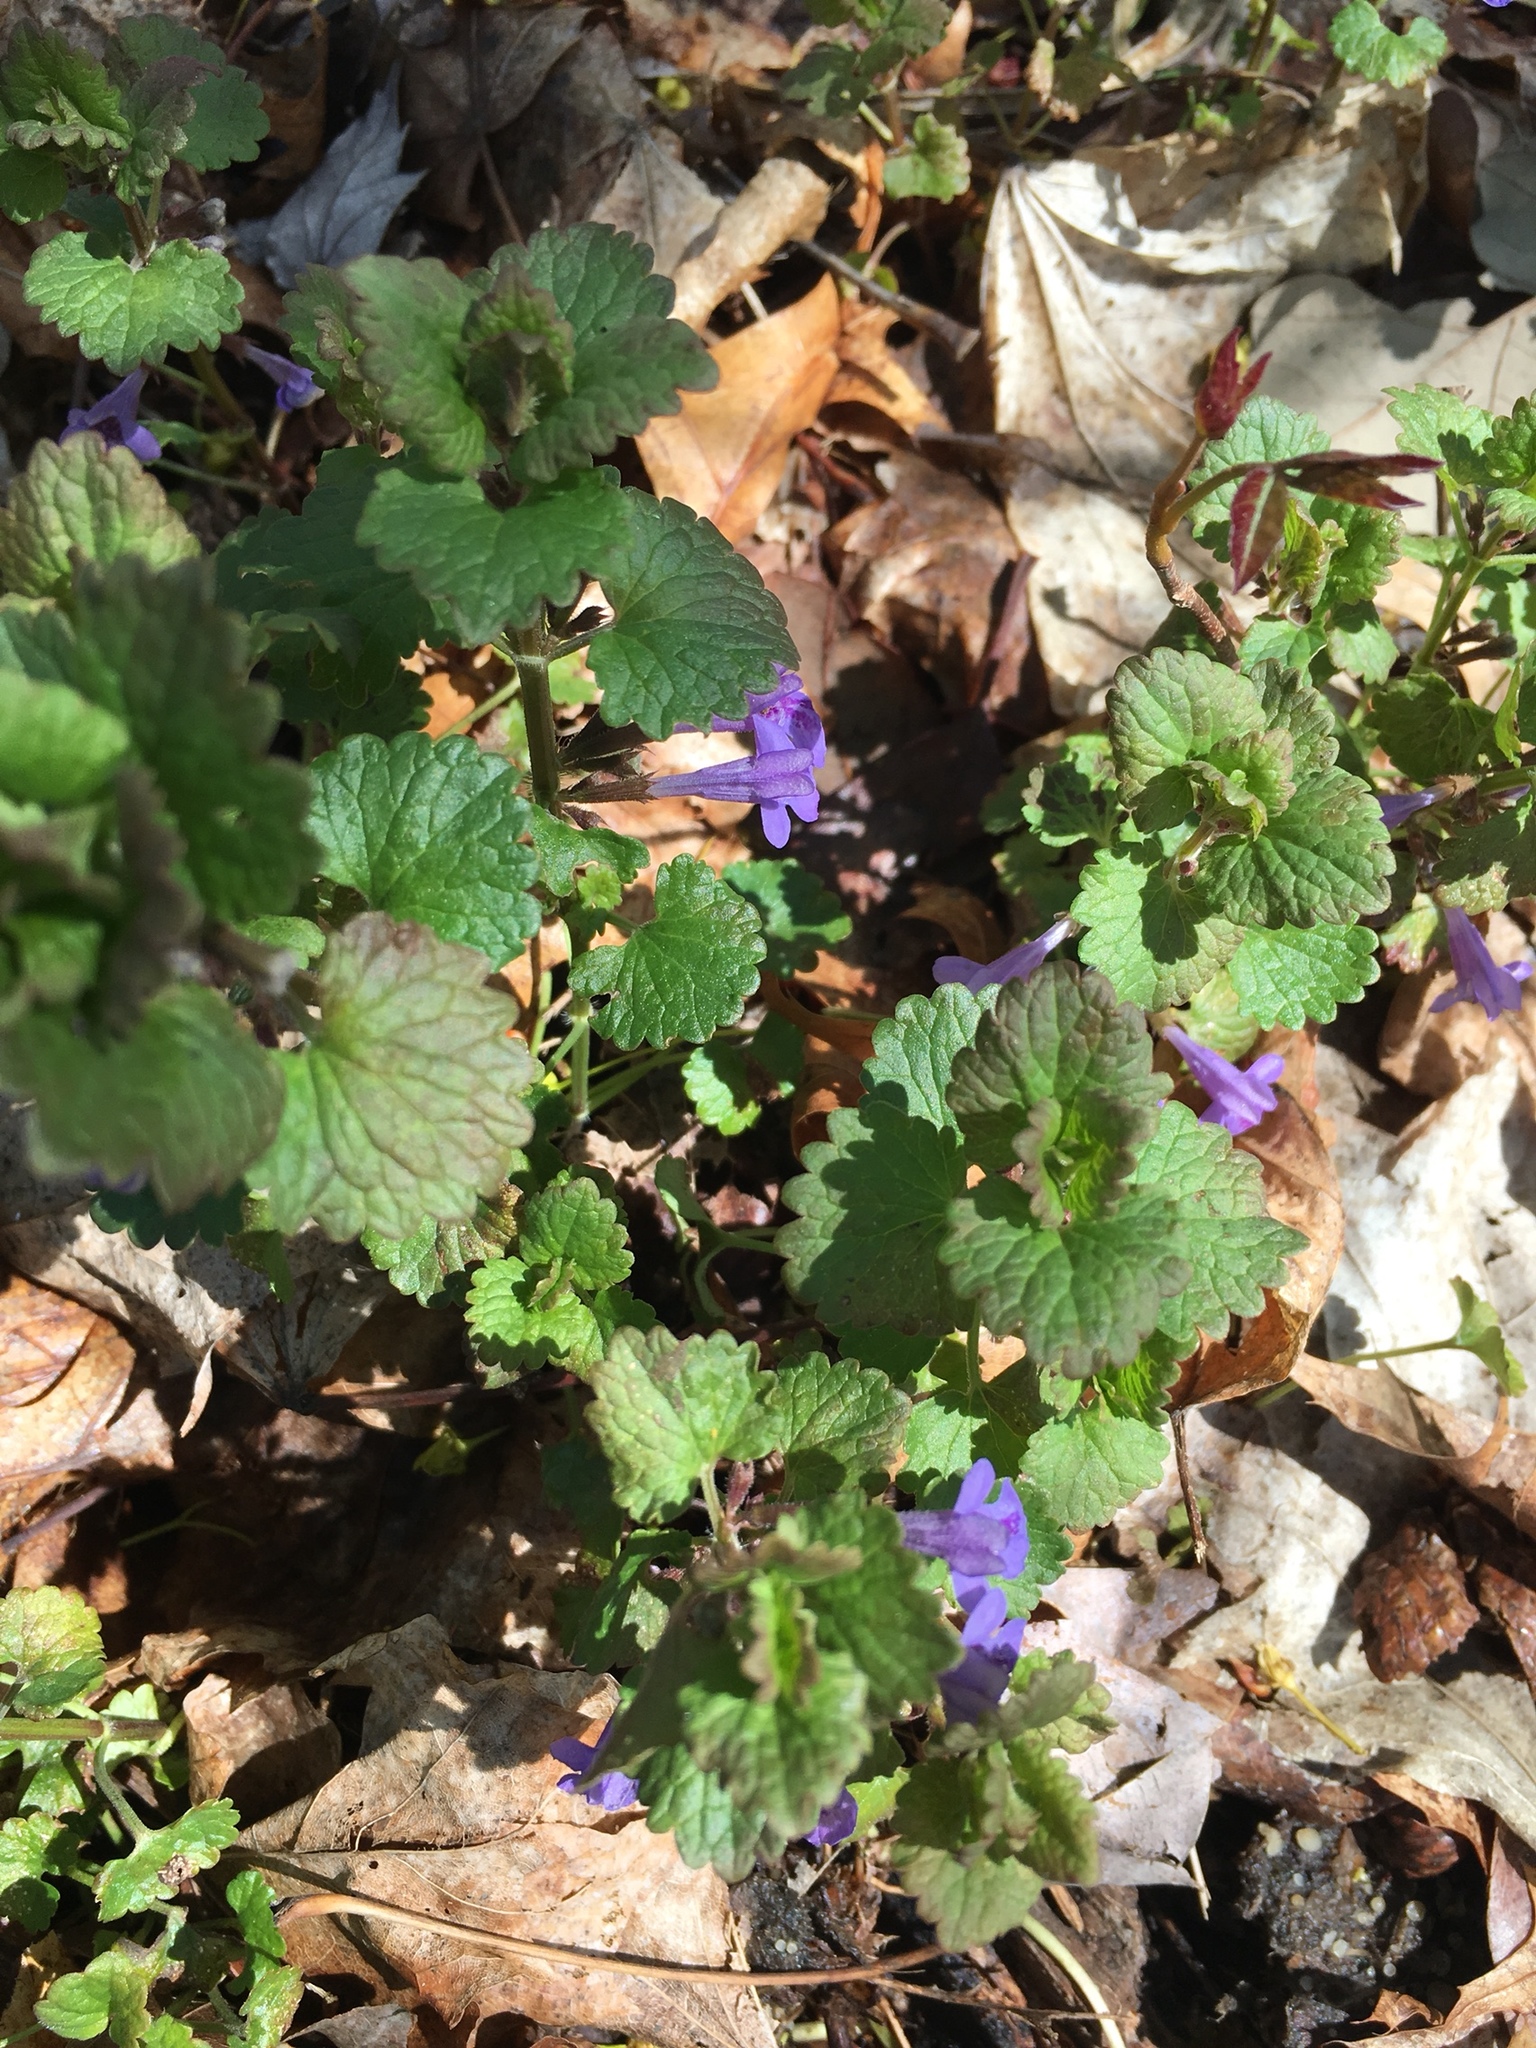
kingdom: Plantae
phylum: Tracheophyta
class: Magnoliopsida
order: Lamiales
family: Lamiaceae
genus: Glechoma
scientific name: Glechoma hederacea
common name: Ground ivy
